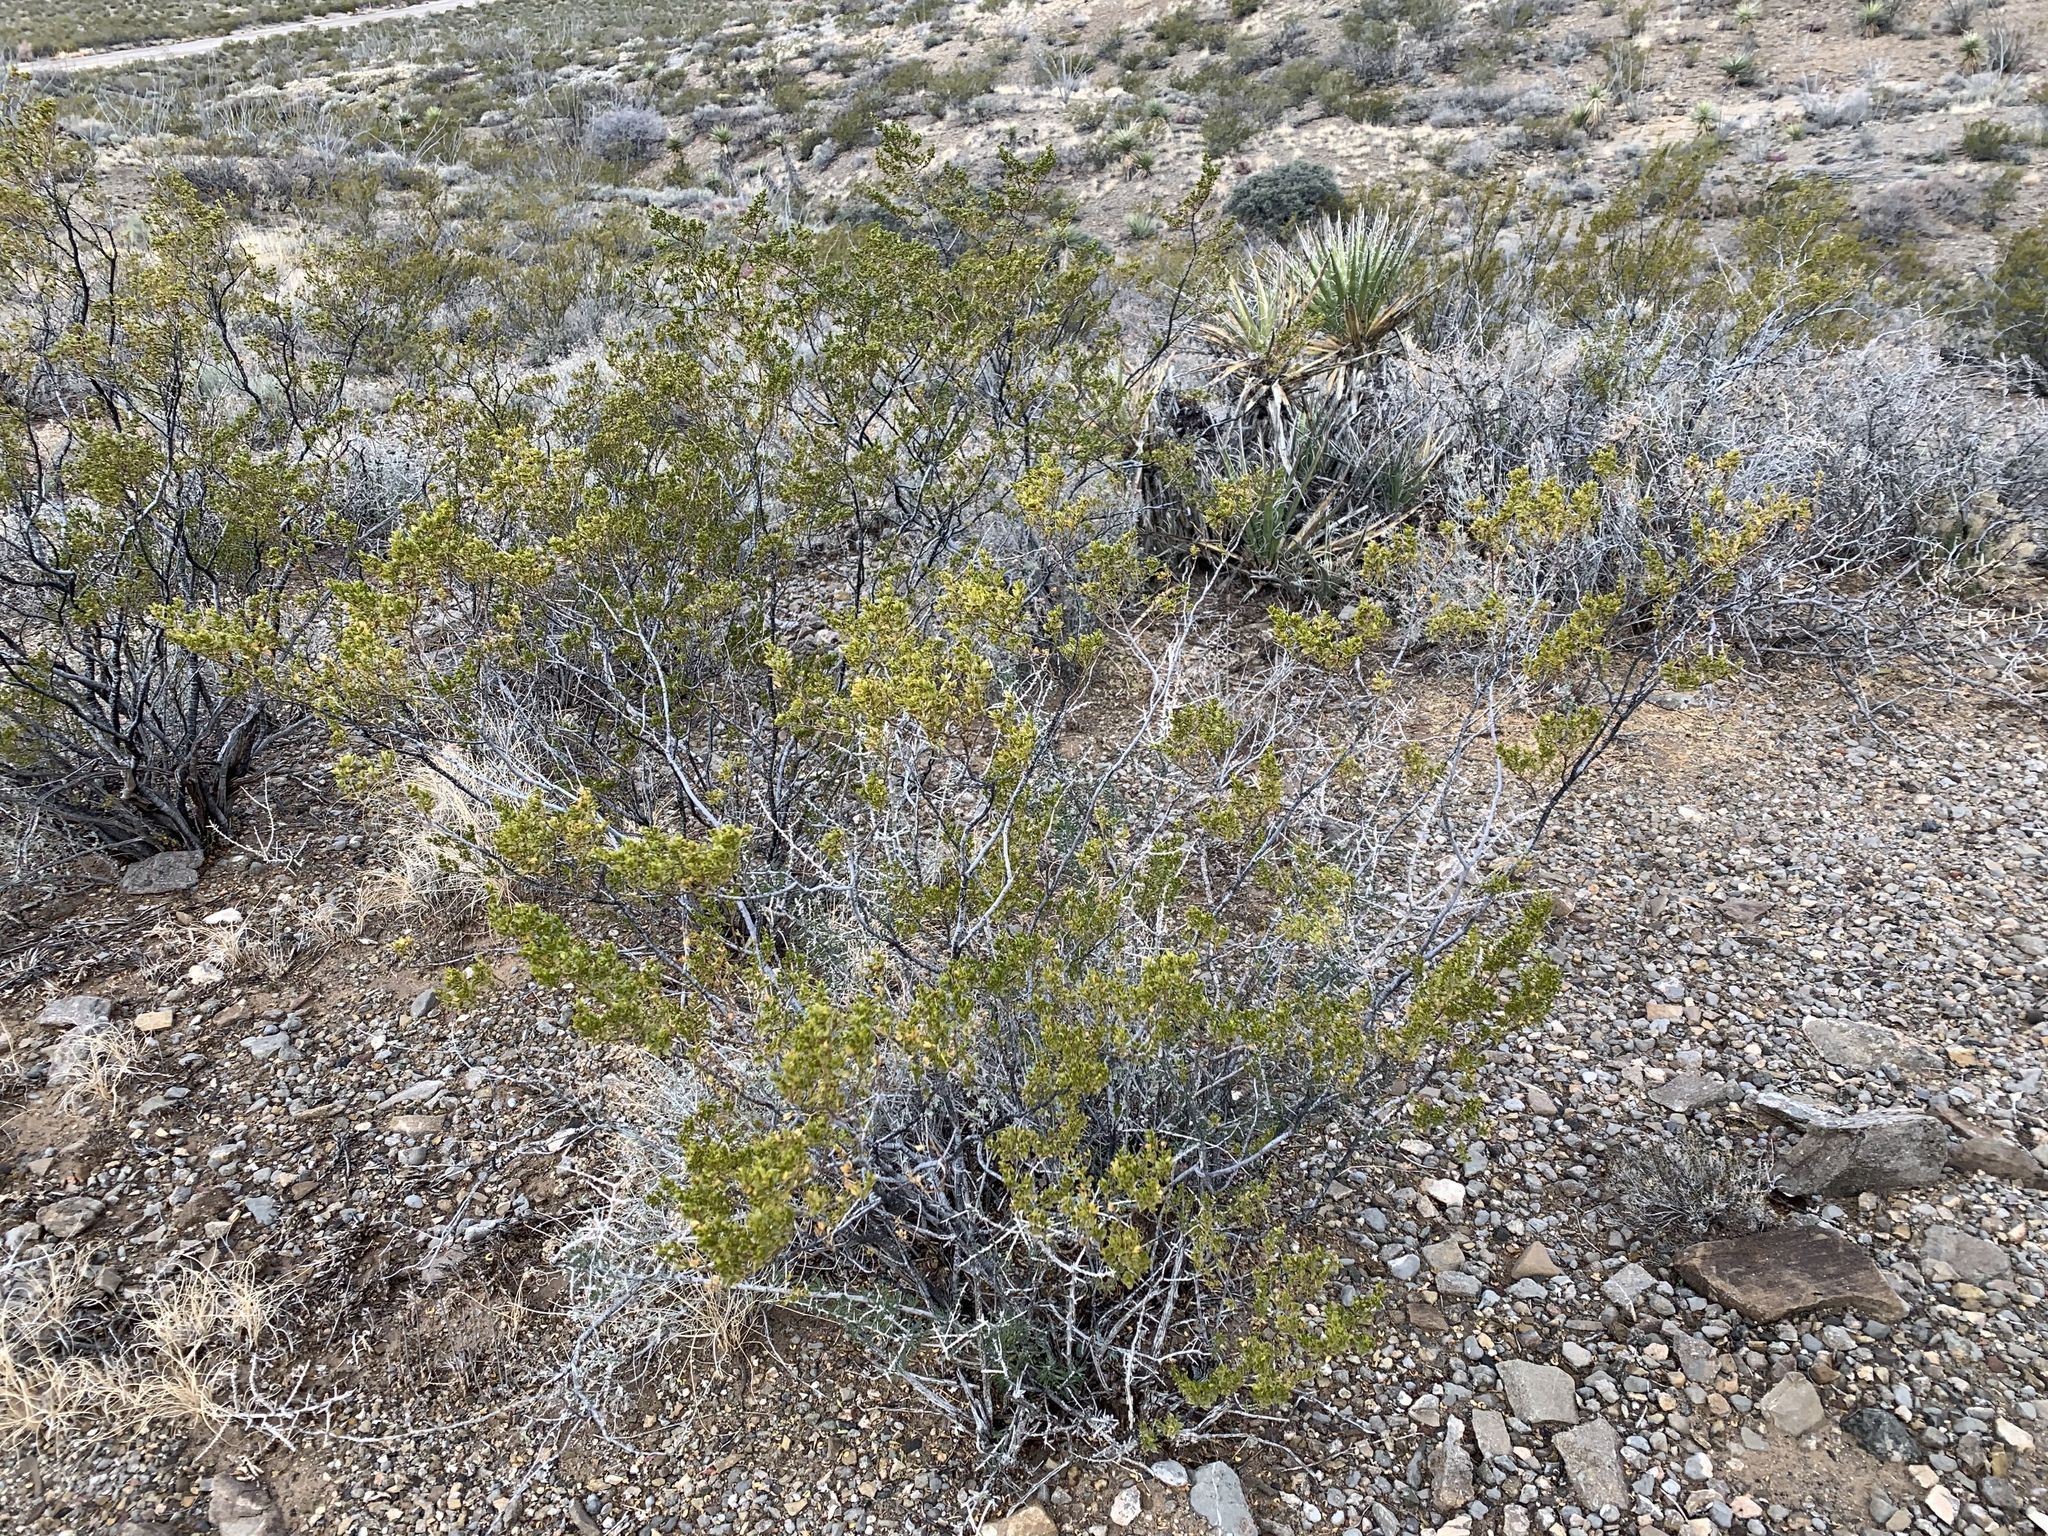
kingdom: Plantae
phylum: Tracheophyta
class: Magnoliopsida
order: Zygophyllales
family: Zygophyllaceae
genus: Larrea
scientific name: Larrea tridentata
